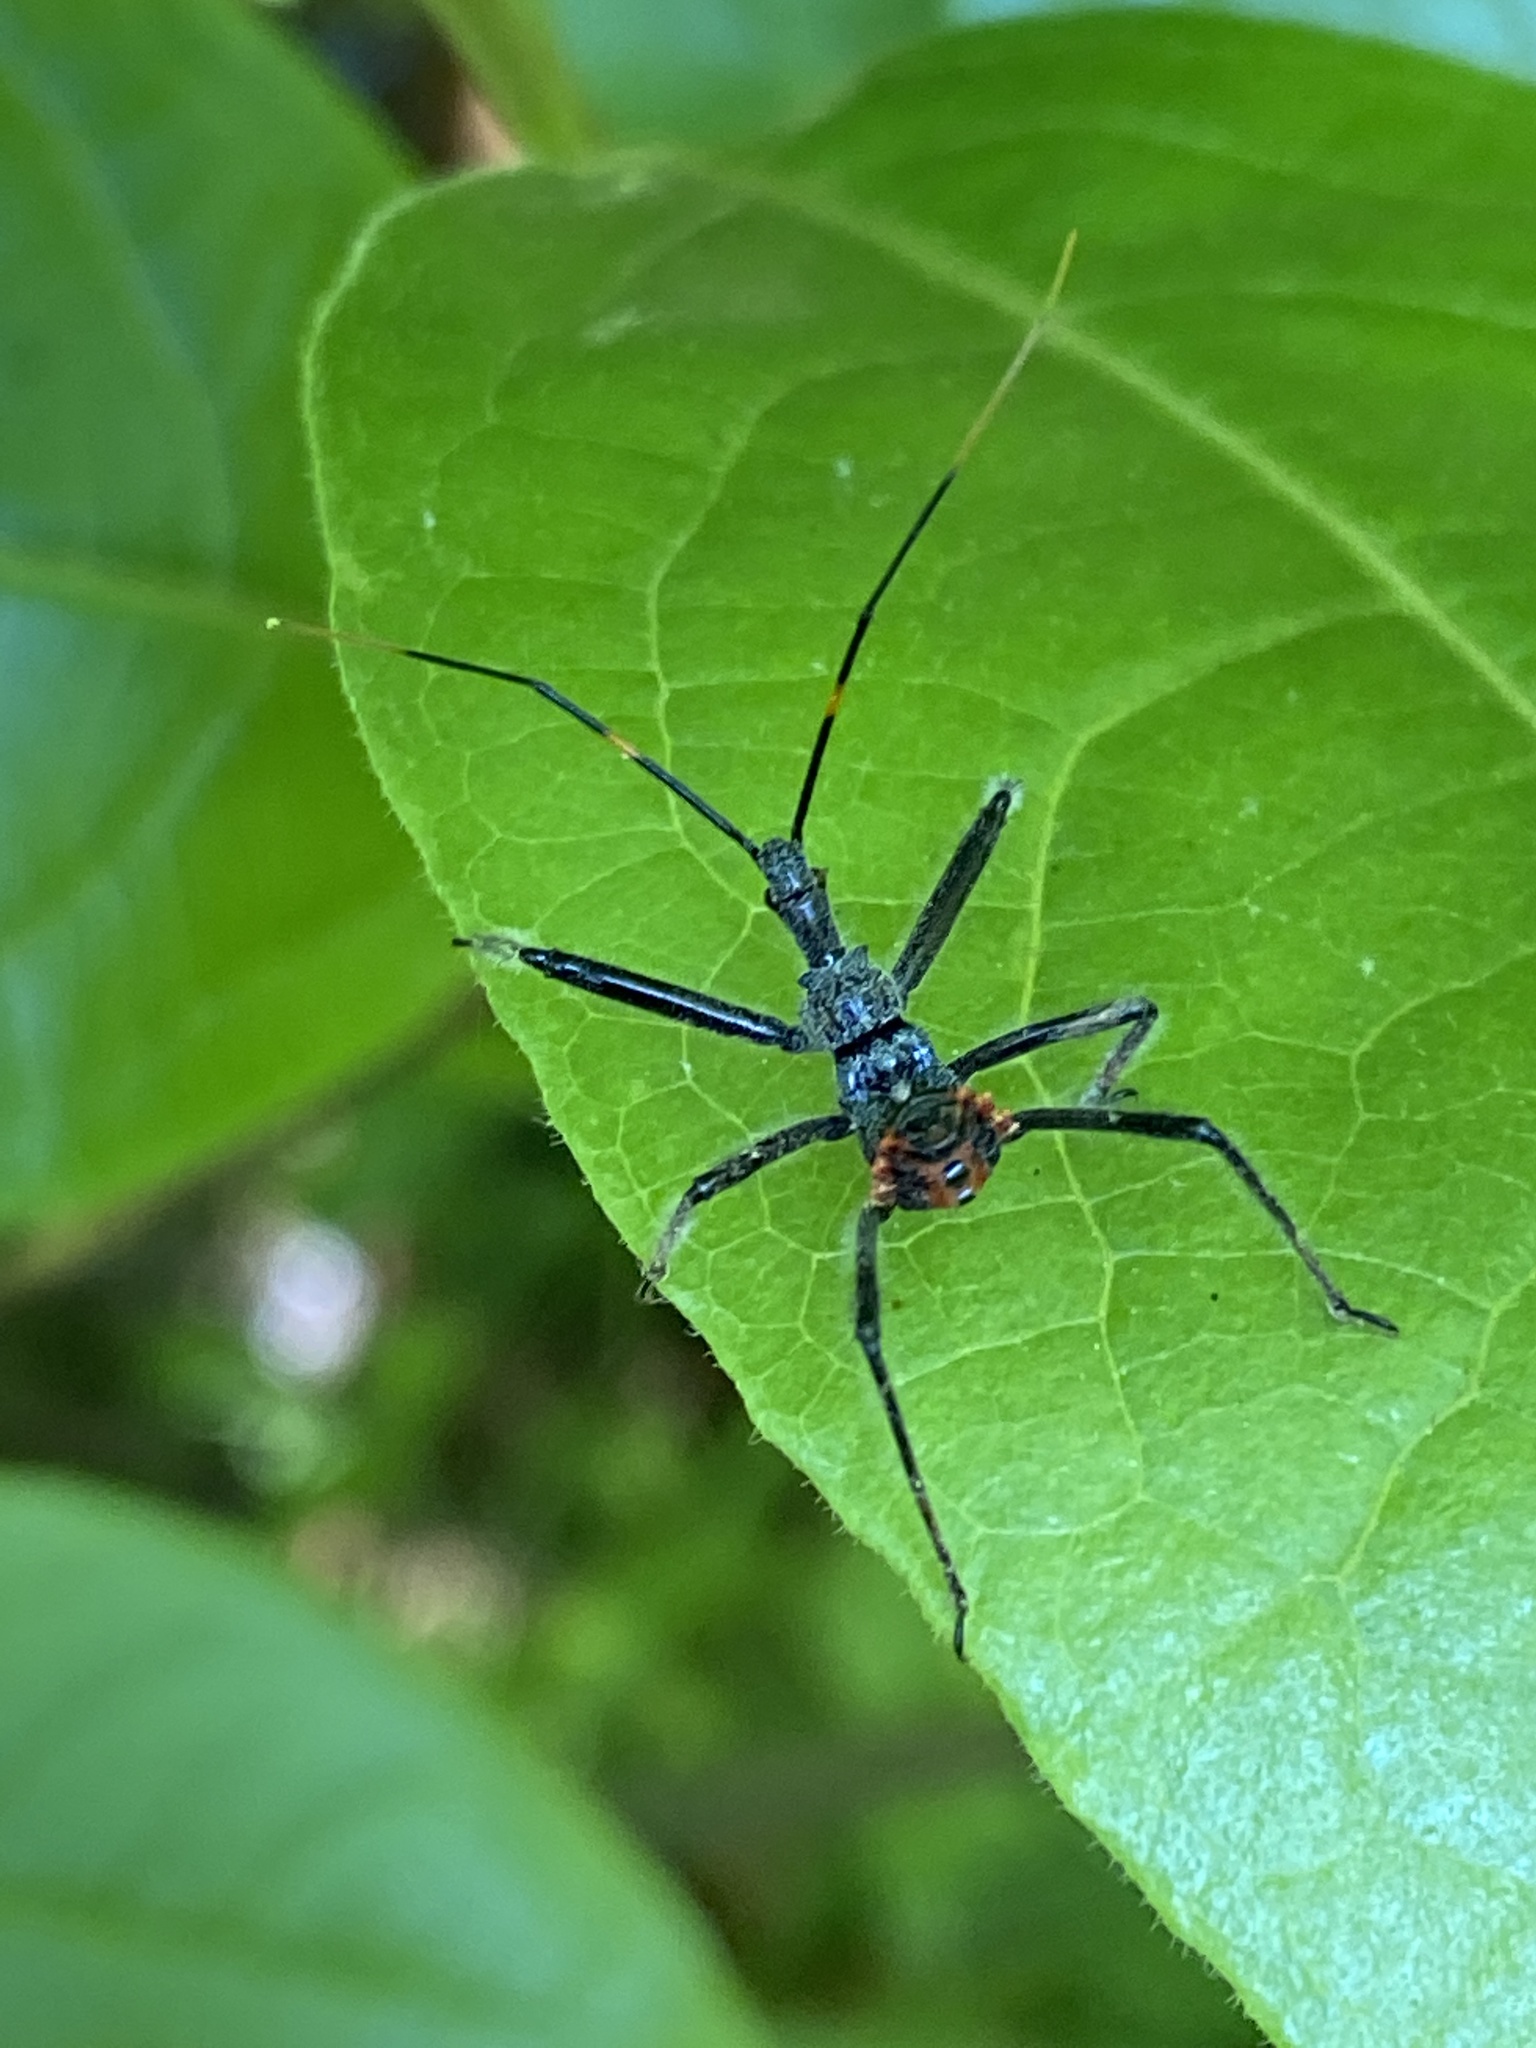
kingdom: Animalia
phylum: Arthropoda
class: Insecta
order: Hemiptera
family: Reduviidae
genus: Arilus
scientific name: Arilus cristatus
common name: North american wheel bug
